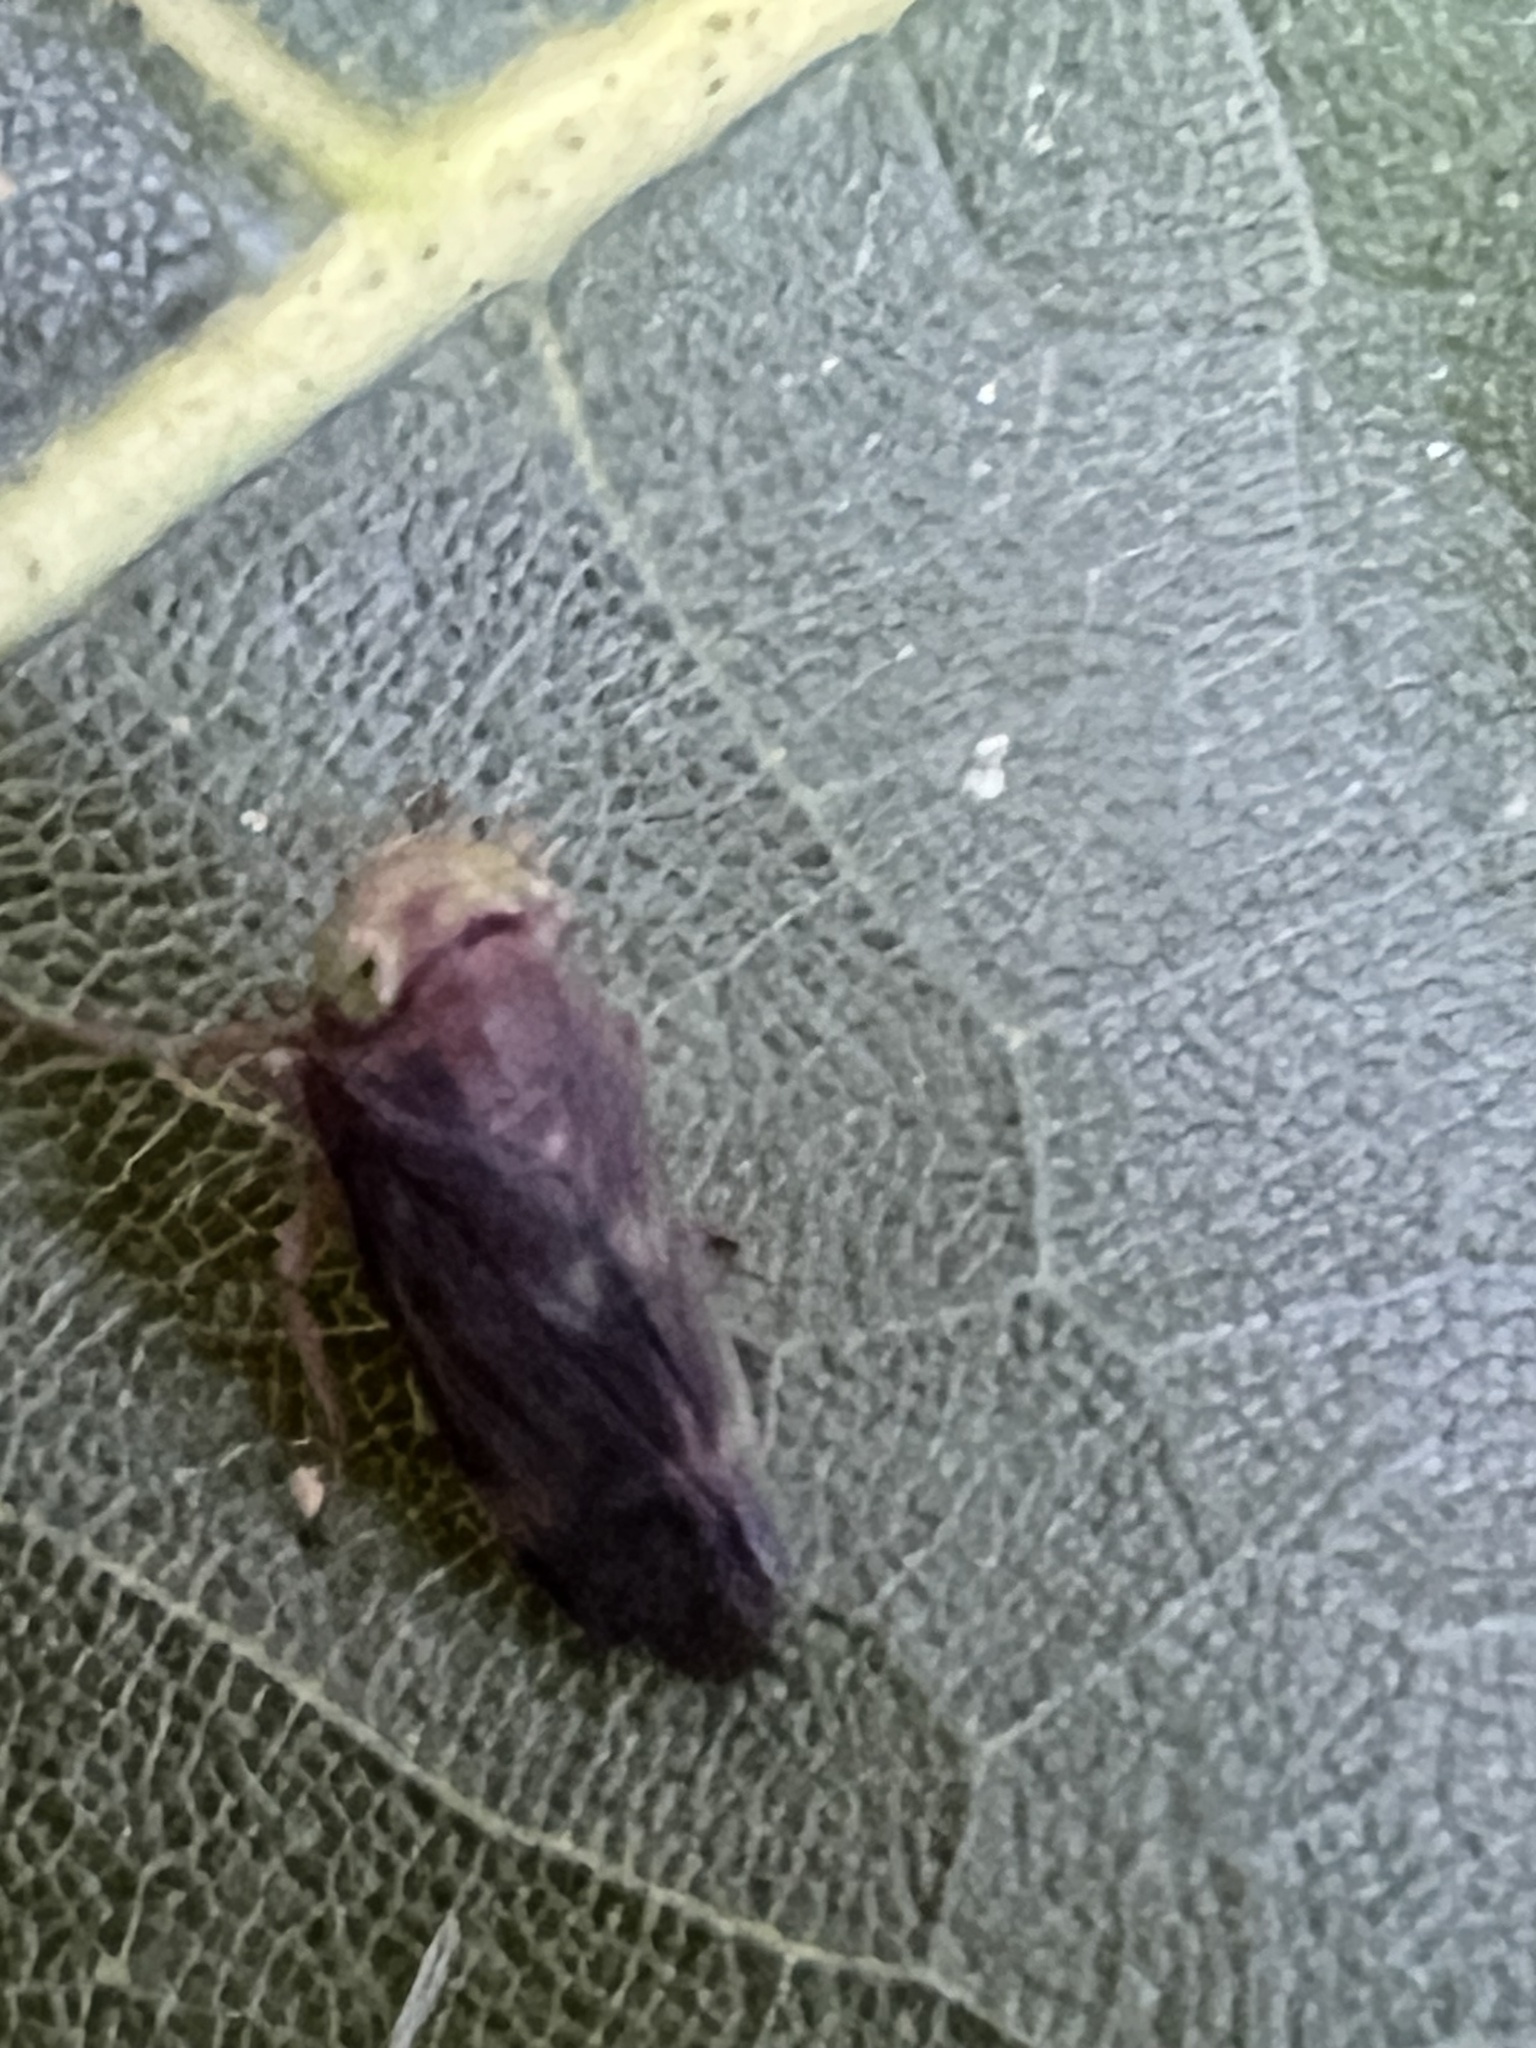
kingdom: Animalia
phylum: Arthropoda
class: Insecta
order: Hemiptera
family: Cicadellidae
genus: Jikradia
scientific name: Jikradia olitoria
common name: Coppery leafhopper
